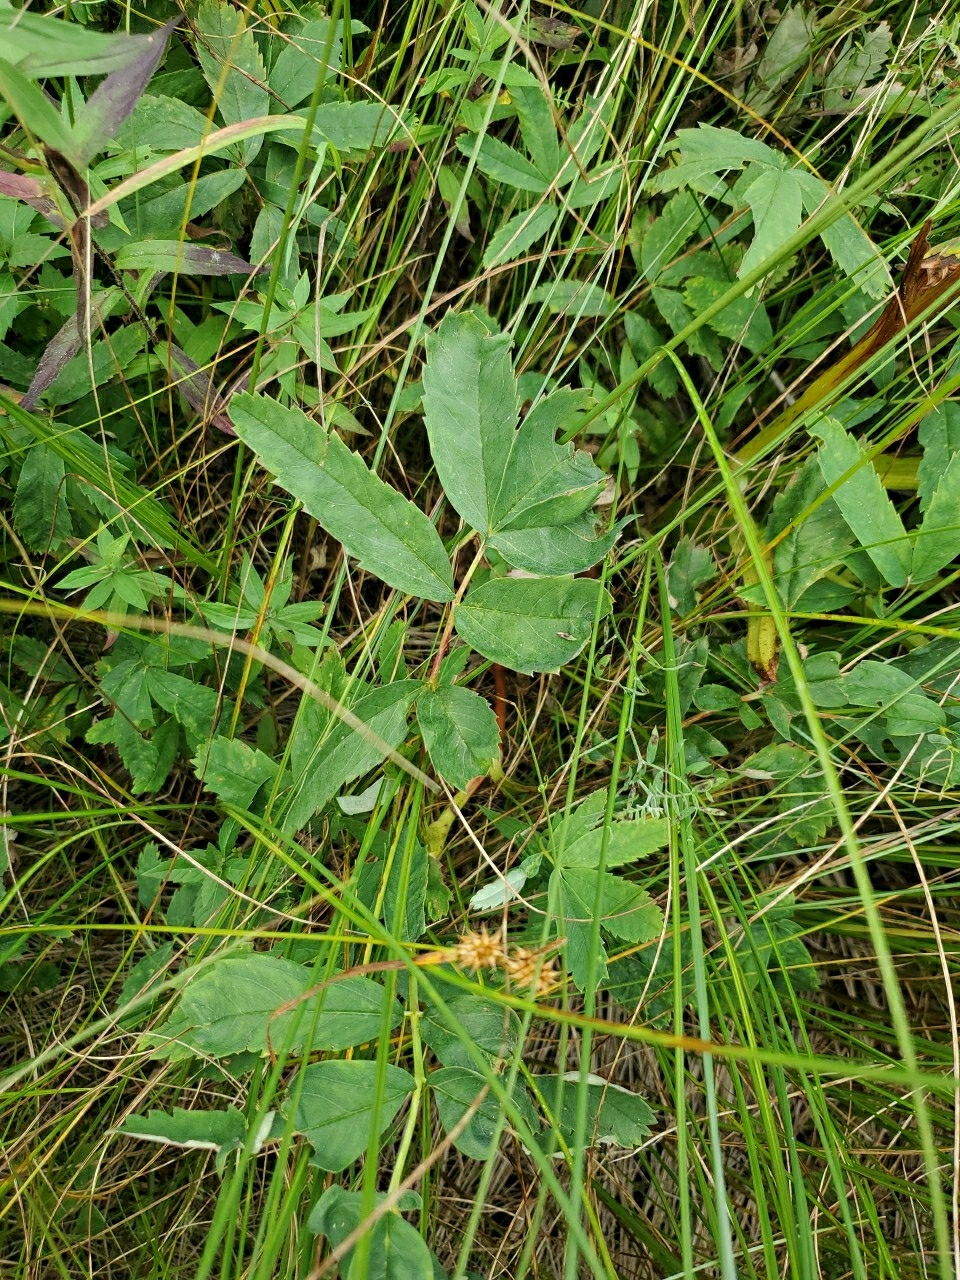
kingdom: Plantae
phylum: Tracheophyta
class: Magnoliopsida
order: Rosales
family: Rosaceae
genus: Comarum
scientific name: Comarum palustre
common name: Marsh cinquefoil
